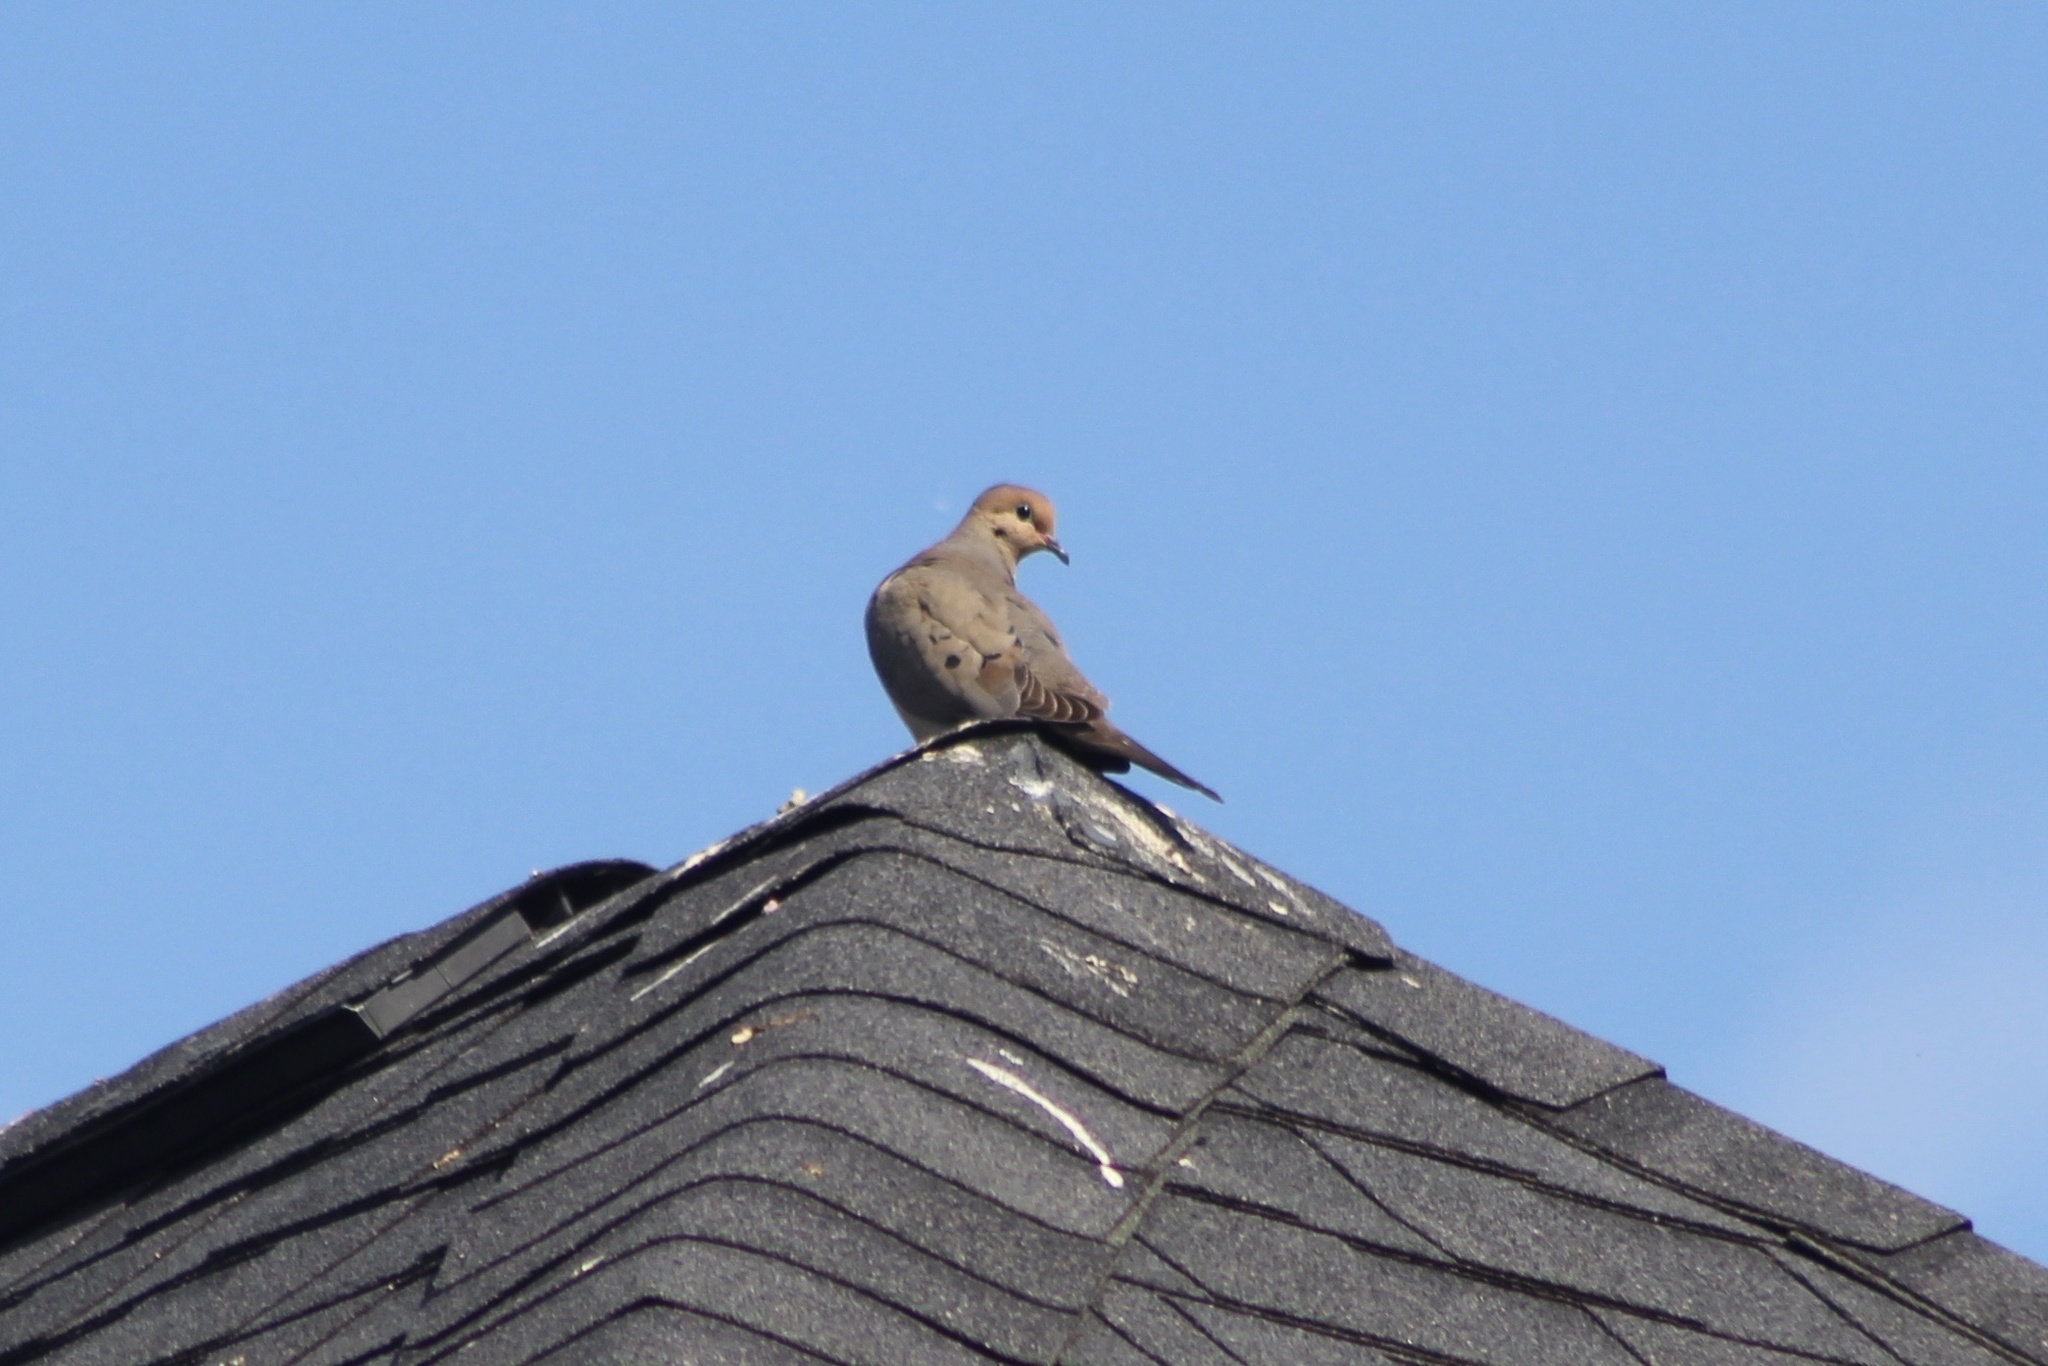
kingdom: Animalia
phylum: Chordata
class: Aves
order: Columbiformes
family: Columbidae
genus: Zenaida
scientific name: Zenaida macroura
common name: Mourning dove
